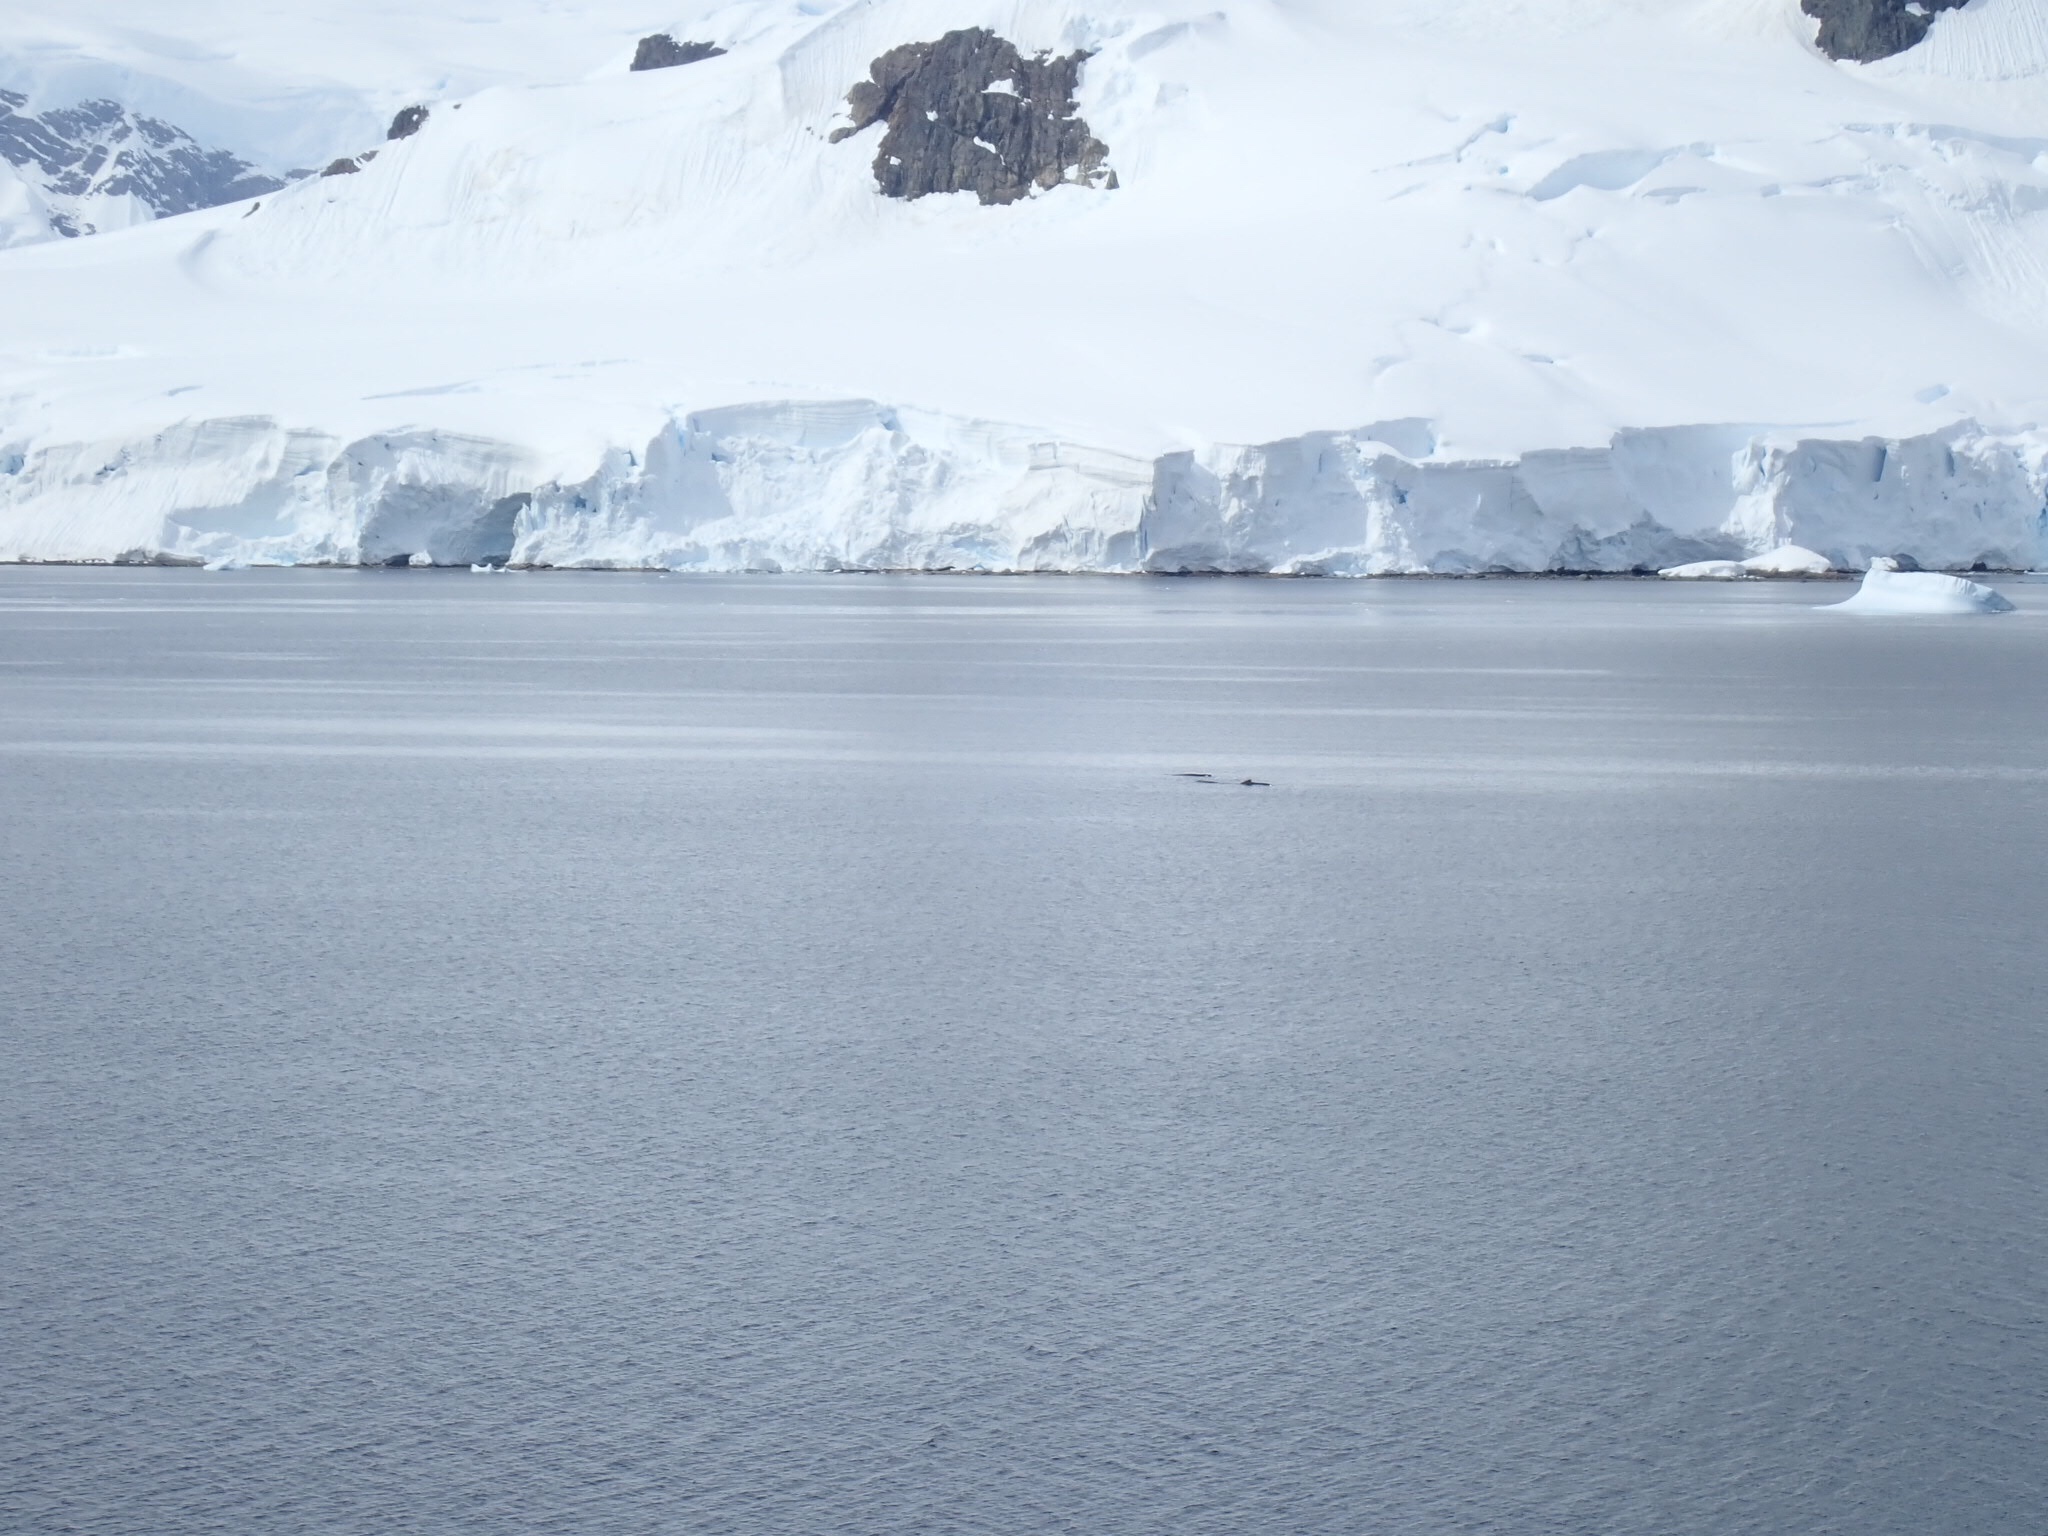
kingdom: Animalia
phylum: Chordata
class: Mammalia
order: Cetacea
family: Balaenopteridae
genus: Megaptera
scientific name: Megaptera novaeangliae
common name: Humpback whale
